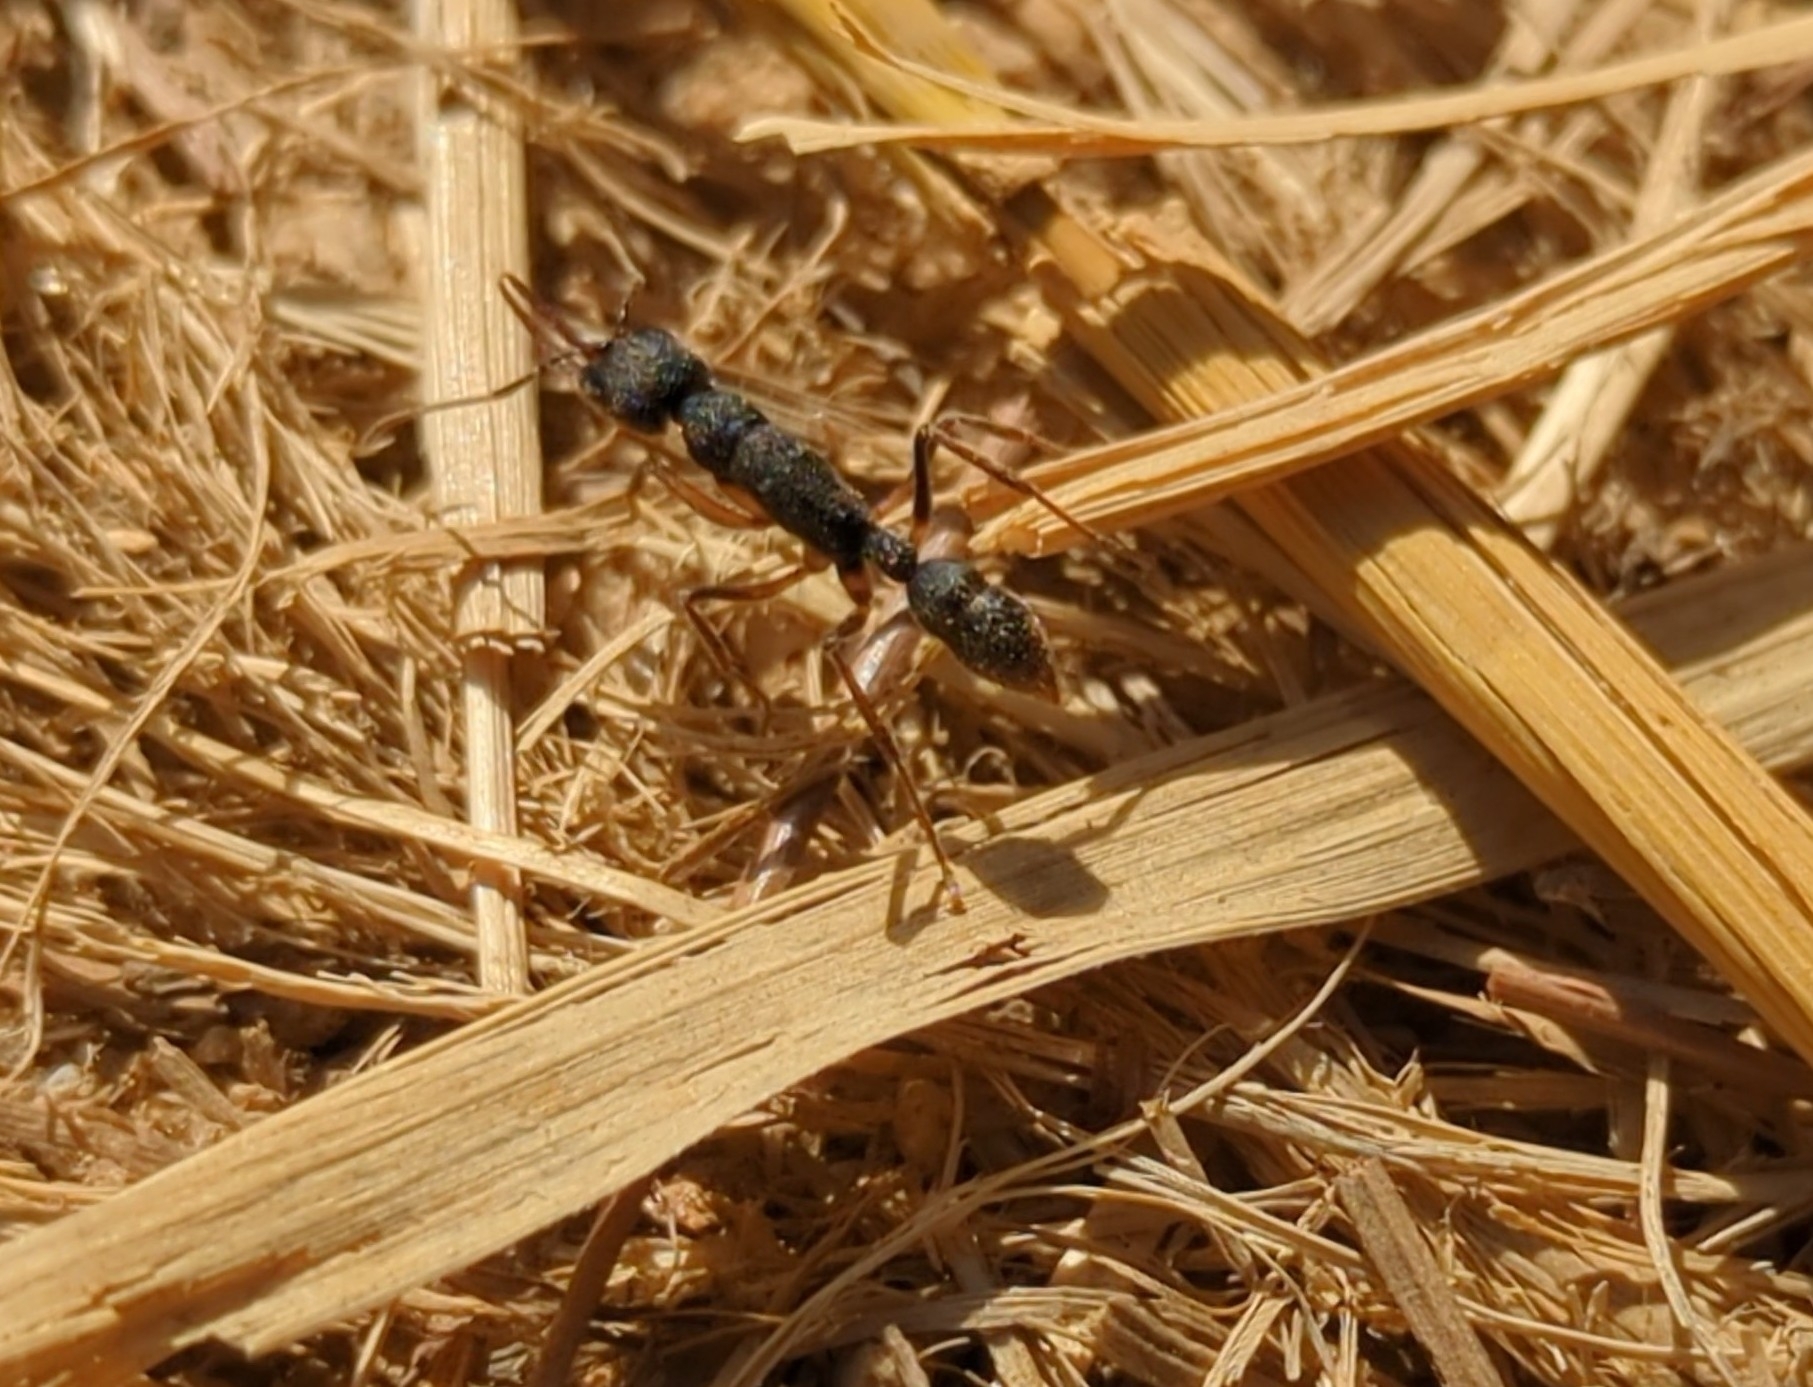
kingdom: Animalia
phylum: Arthropoda
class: Insecta
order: Hymenoptera
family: Formicidae
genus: Harpegnathos
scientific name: Harpegnathos venator
